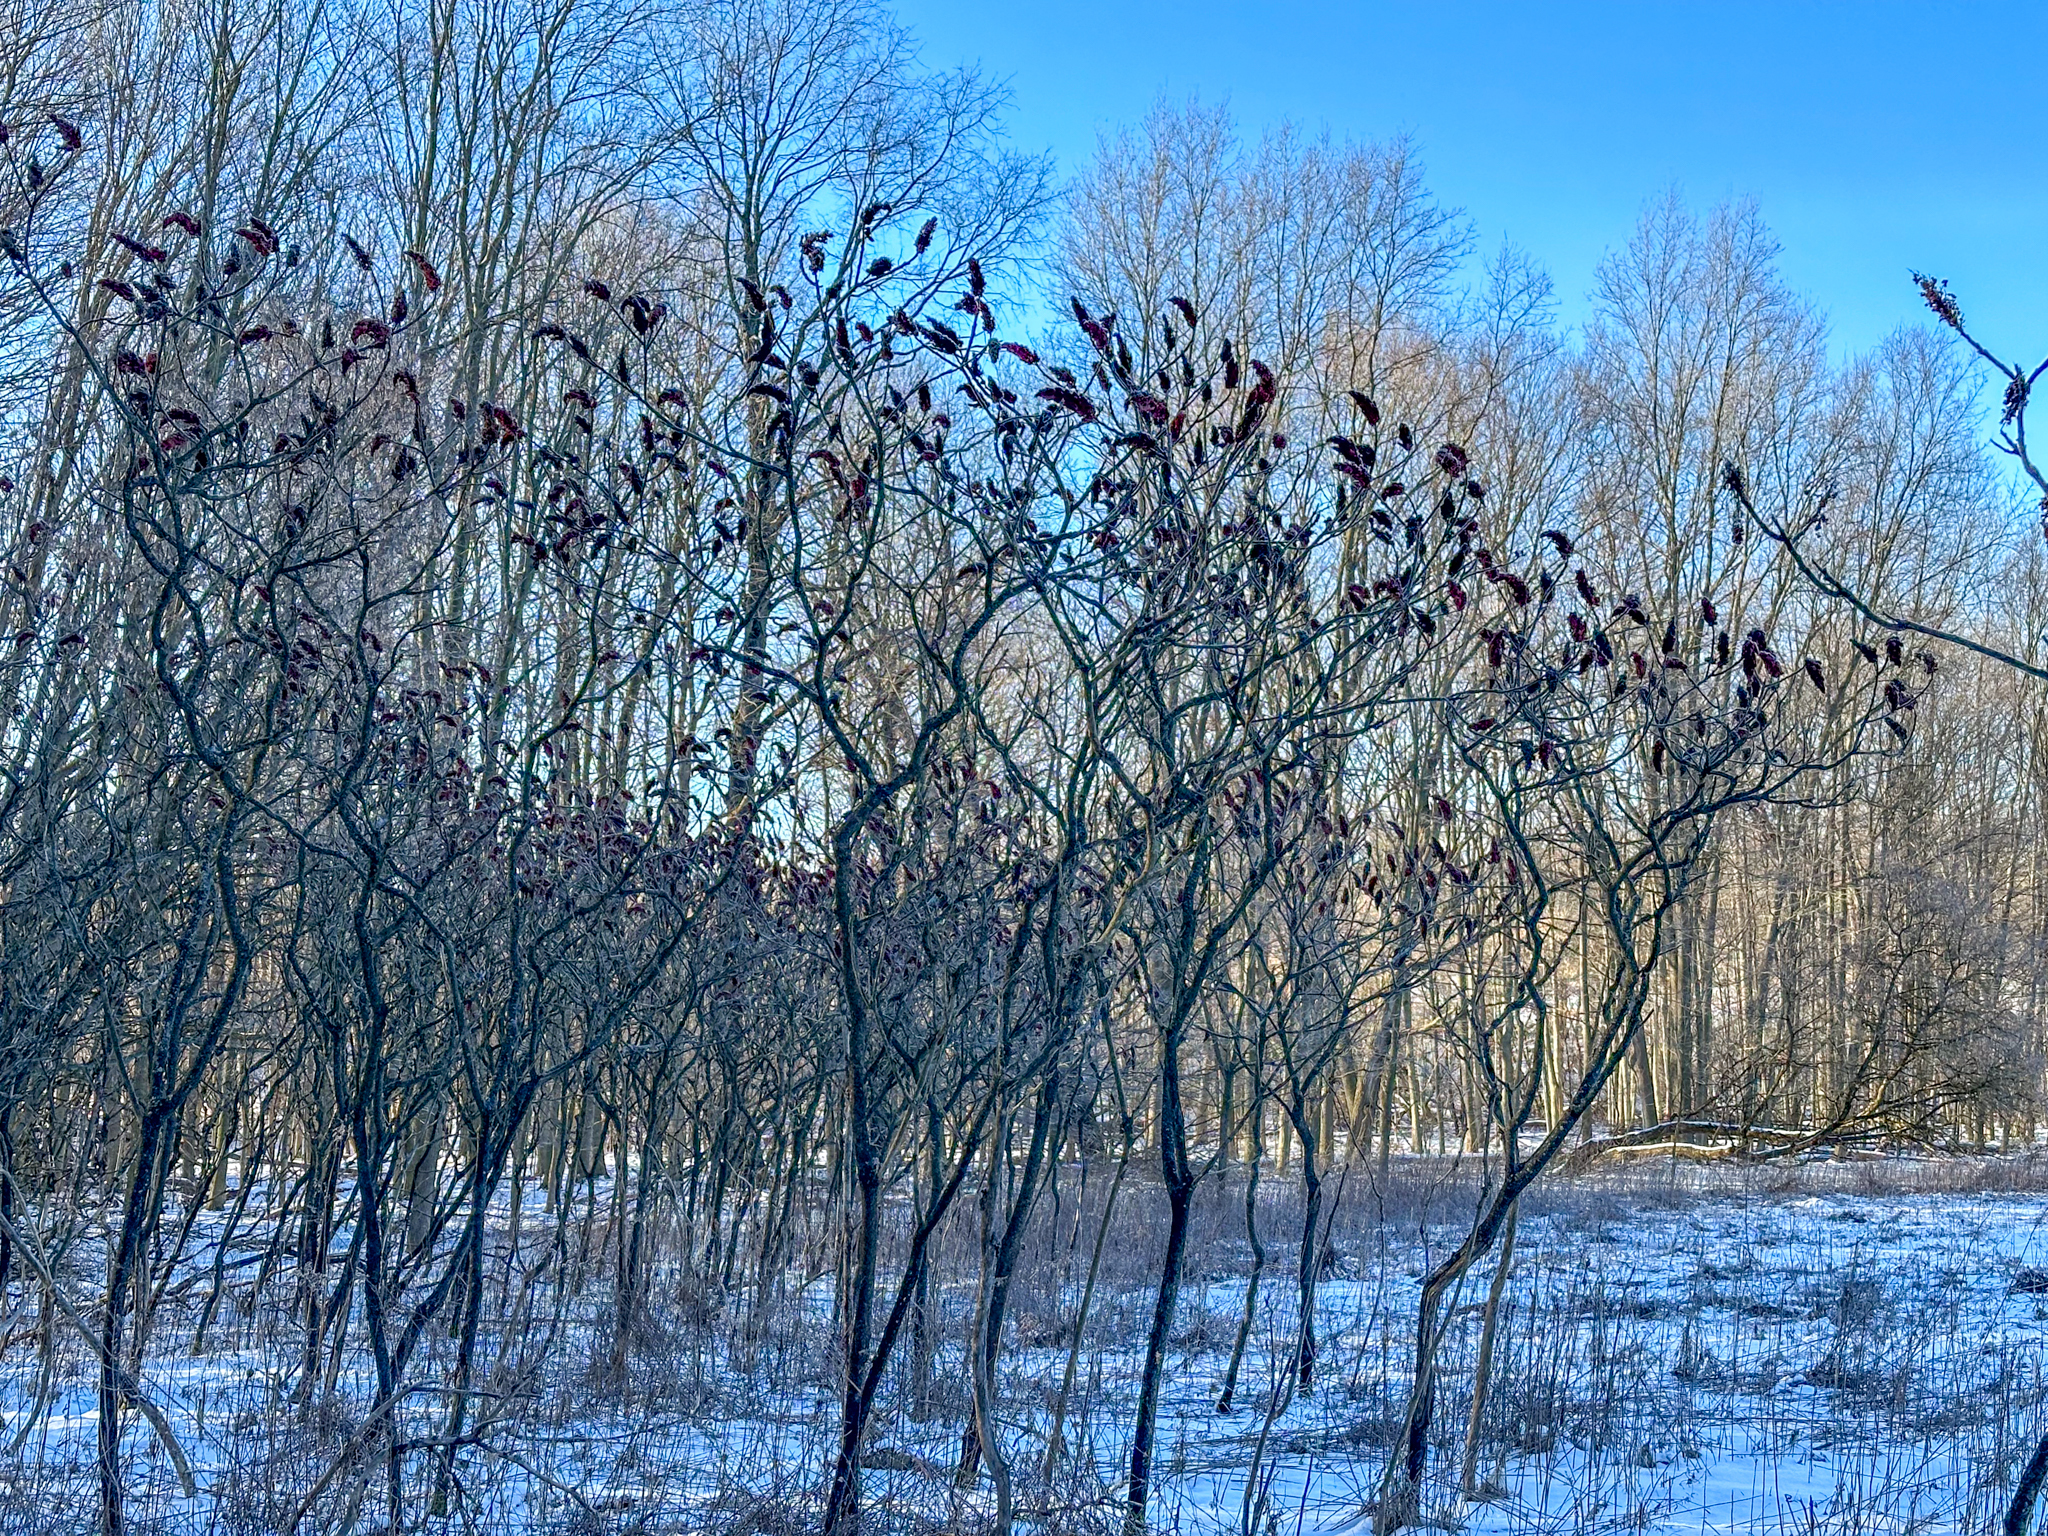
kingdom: Plantae
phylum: Tracheophyta
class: Magnoliopsida
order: Sapindales
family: Anacardiaceae
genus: Rhus
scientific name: Rhus typhina
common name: Staghorn sumac
